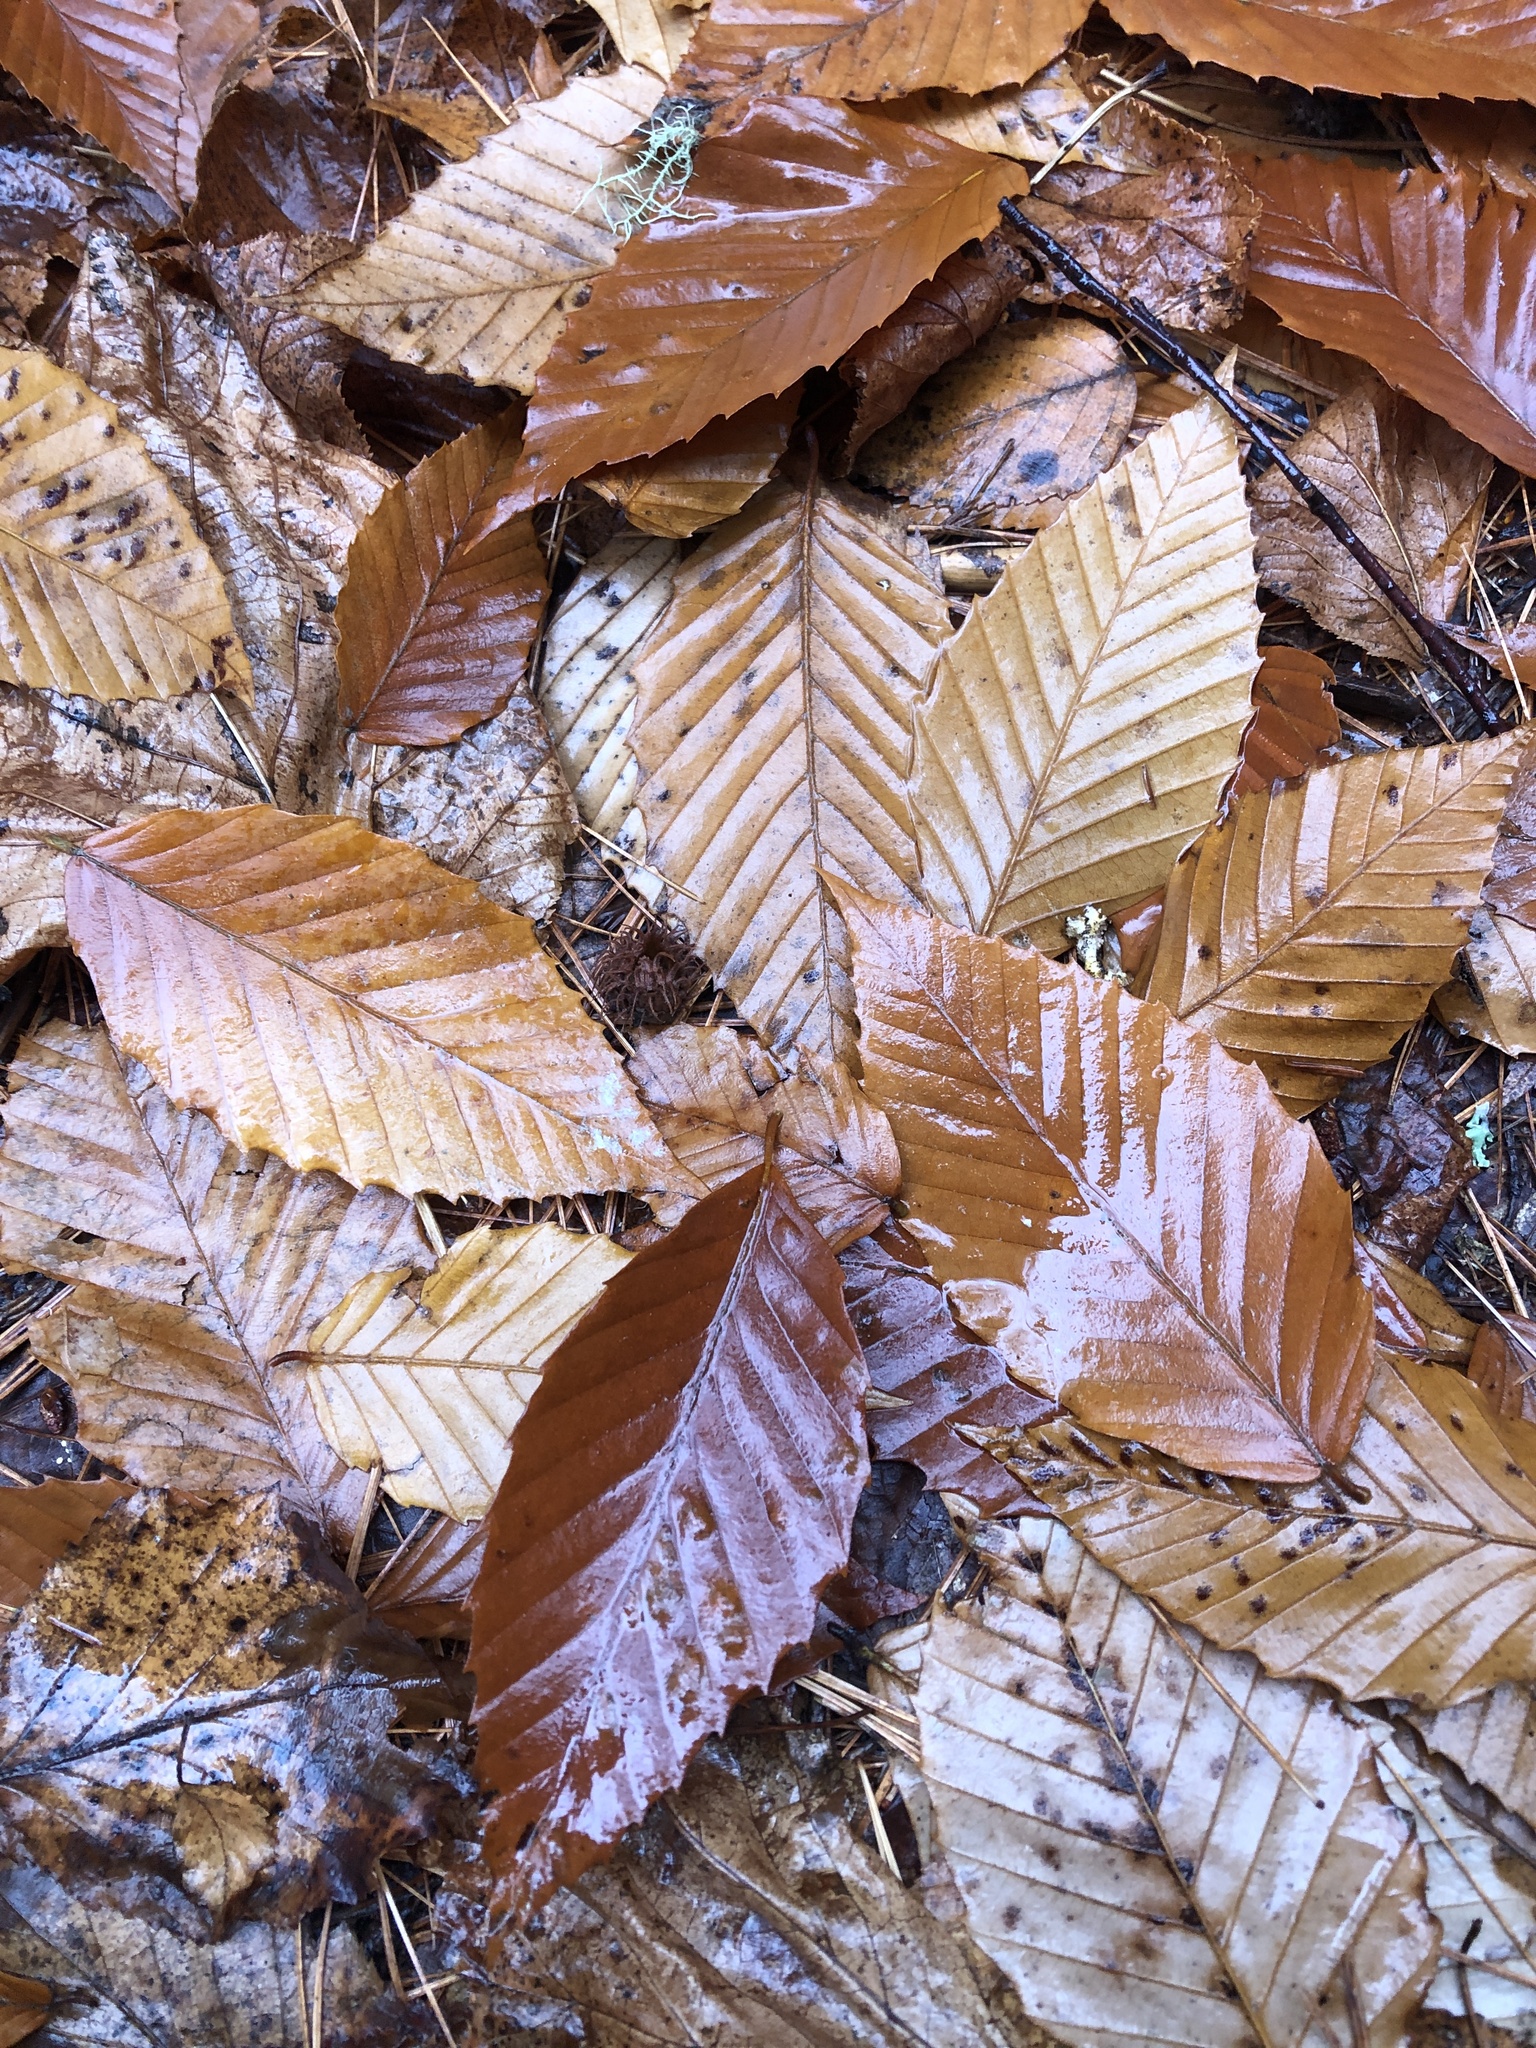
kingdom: Plantae
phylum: Tracheophyta
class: Magnoliopsida
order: Fagales
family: Fagaceae
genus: Fagus
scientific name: Fagus grandifolia
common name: American beech
